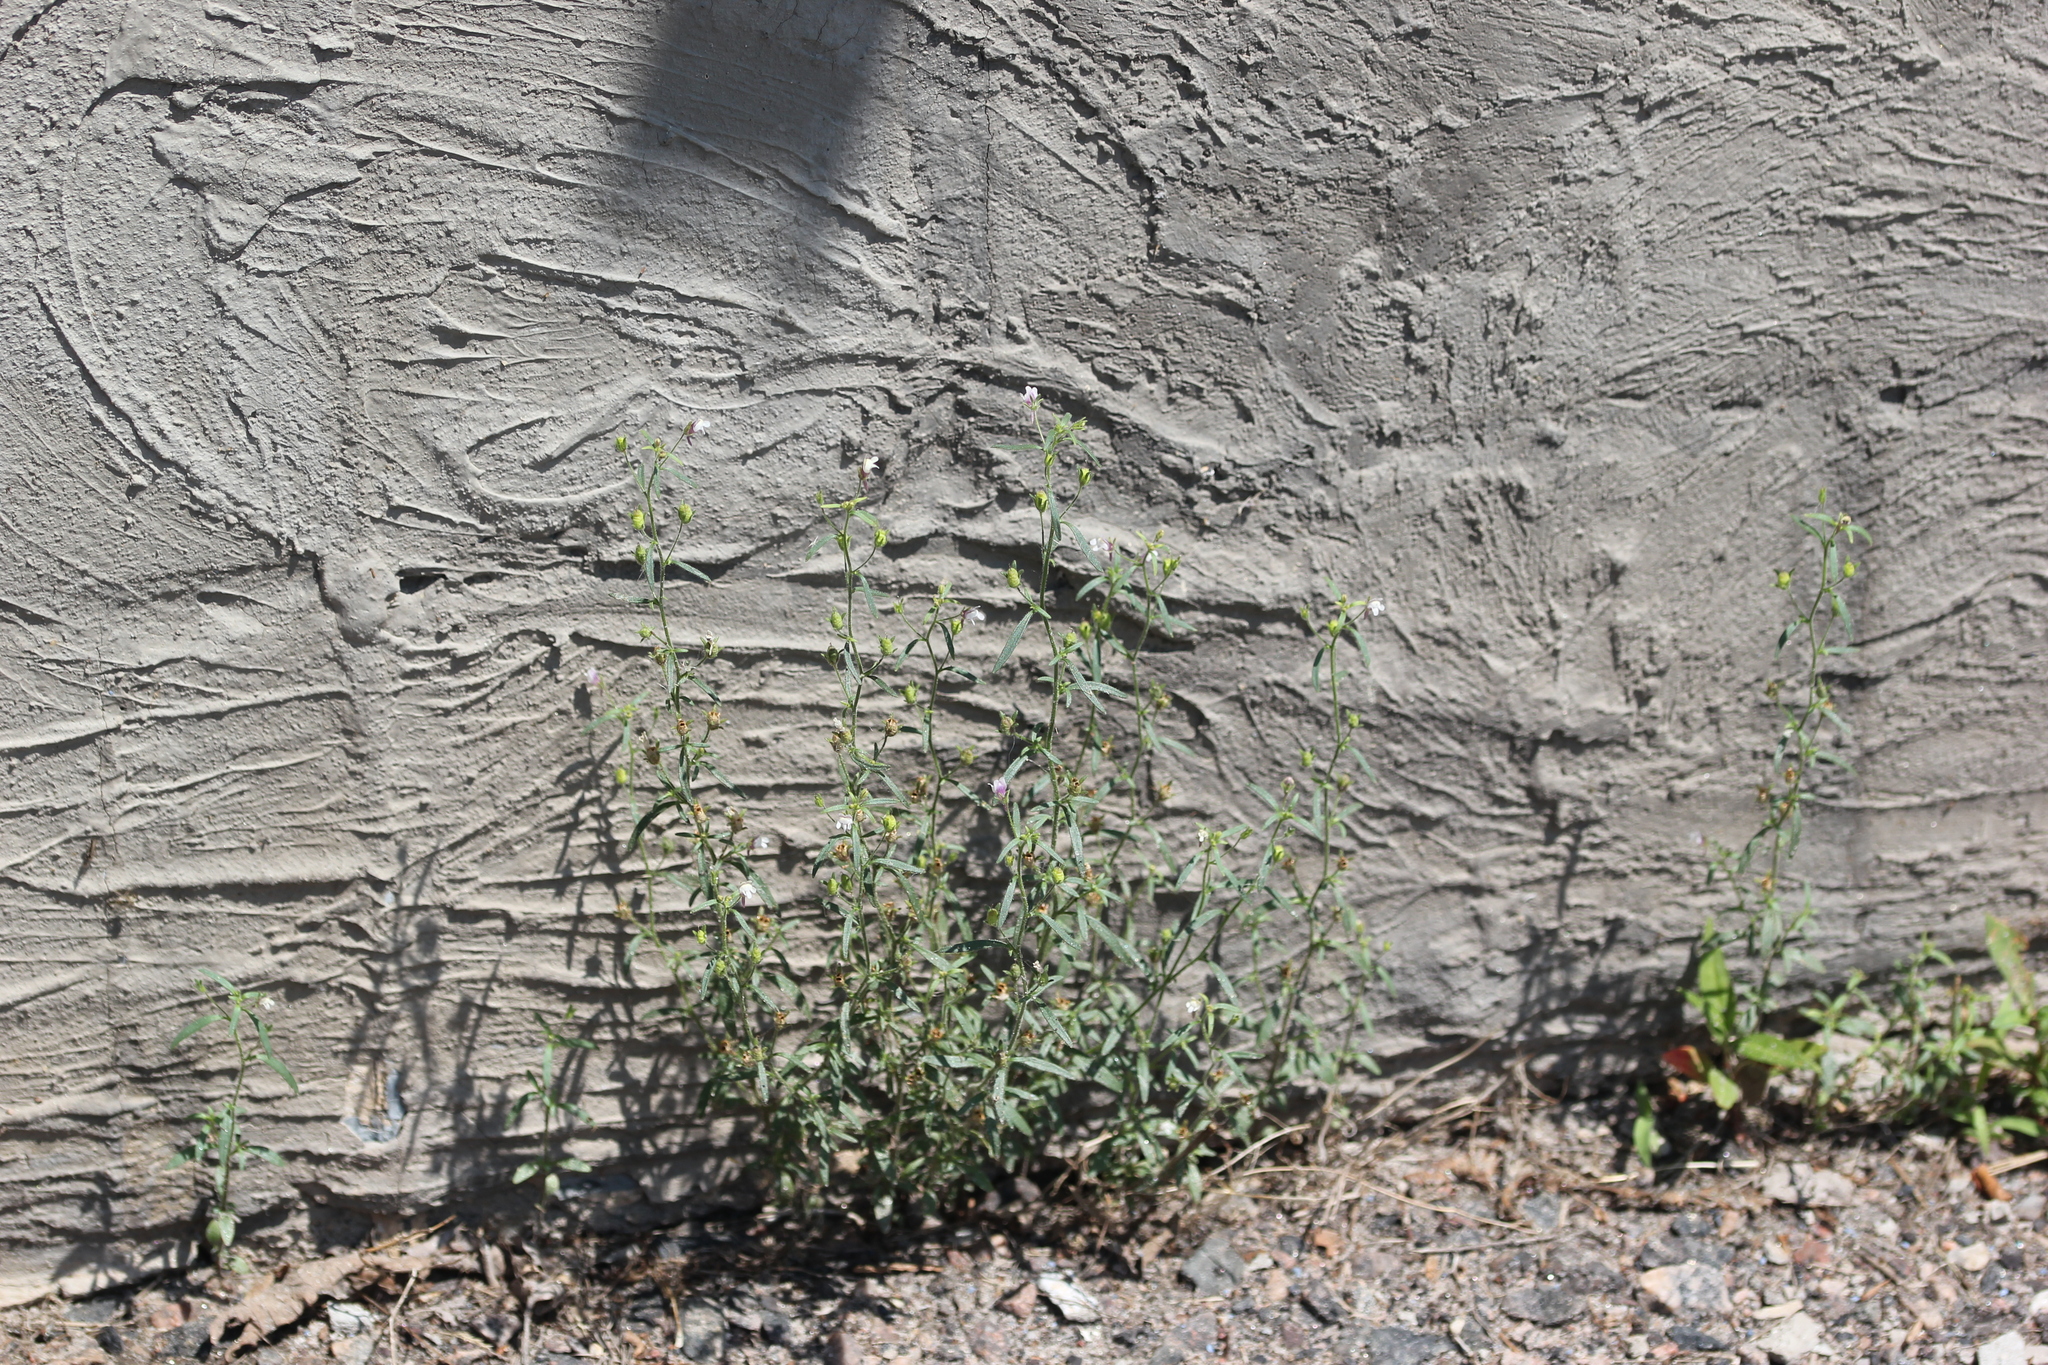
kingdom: Plantae
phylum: Tracheophyta
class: Magnoliopsida
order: Lamiales
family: Plantaginaceae
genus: Chaenorhinum
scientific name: Chaenorhinum minus
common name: Dwarf snapdragon
